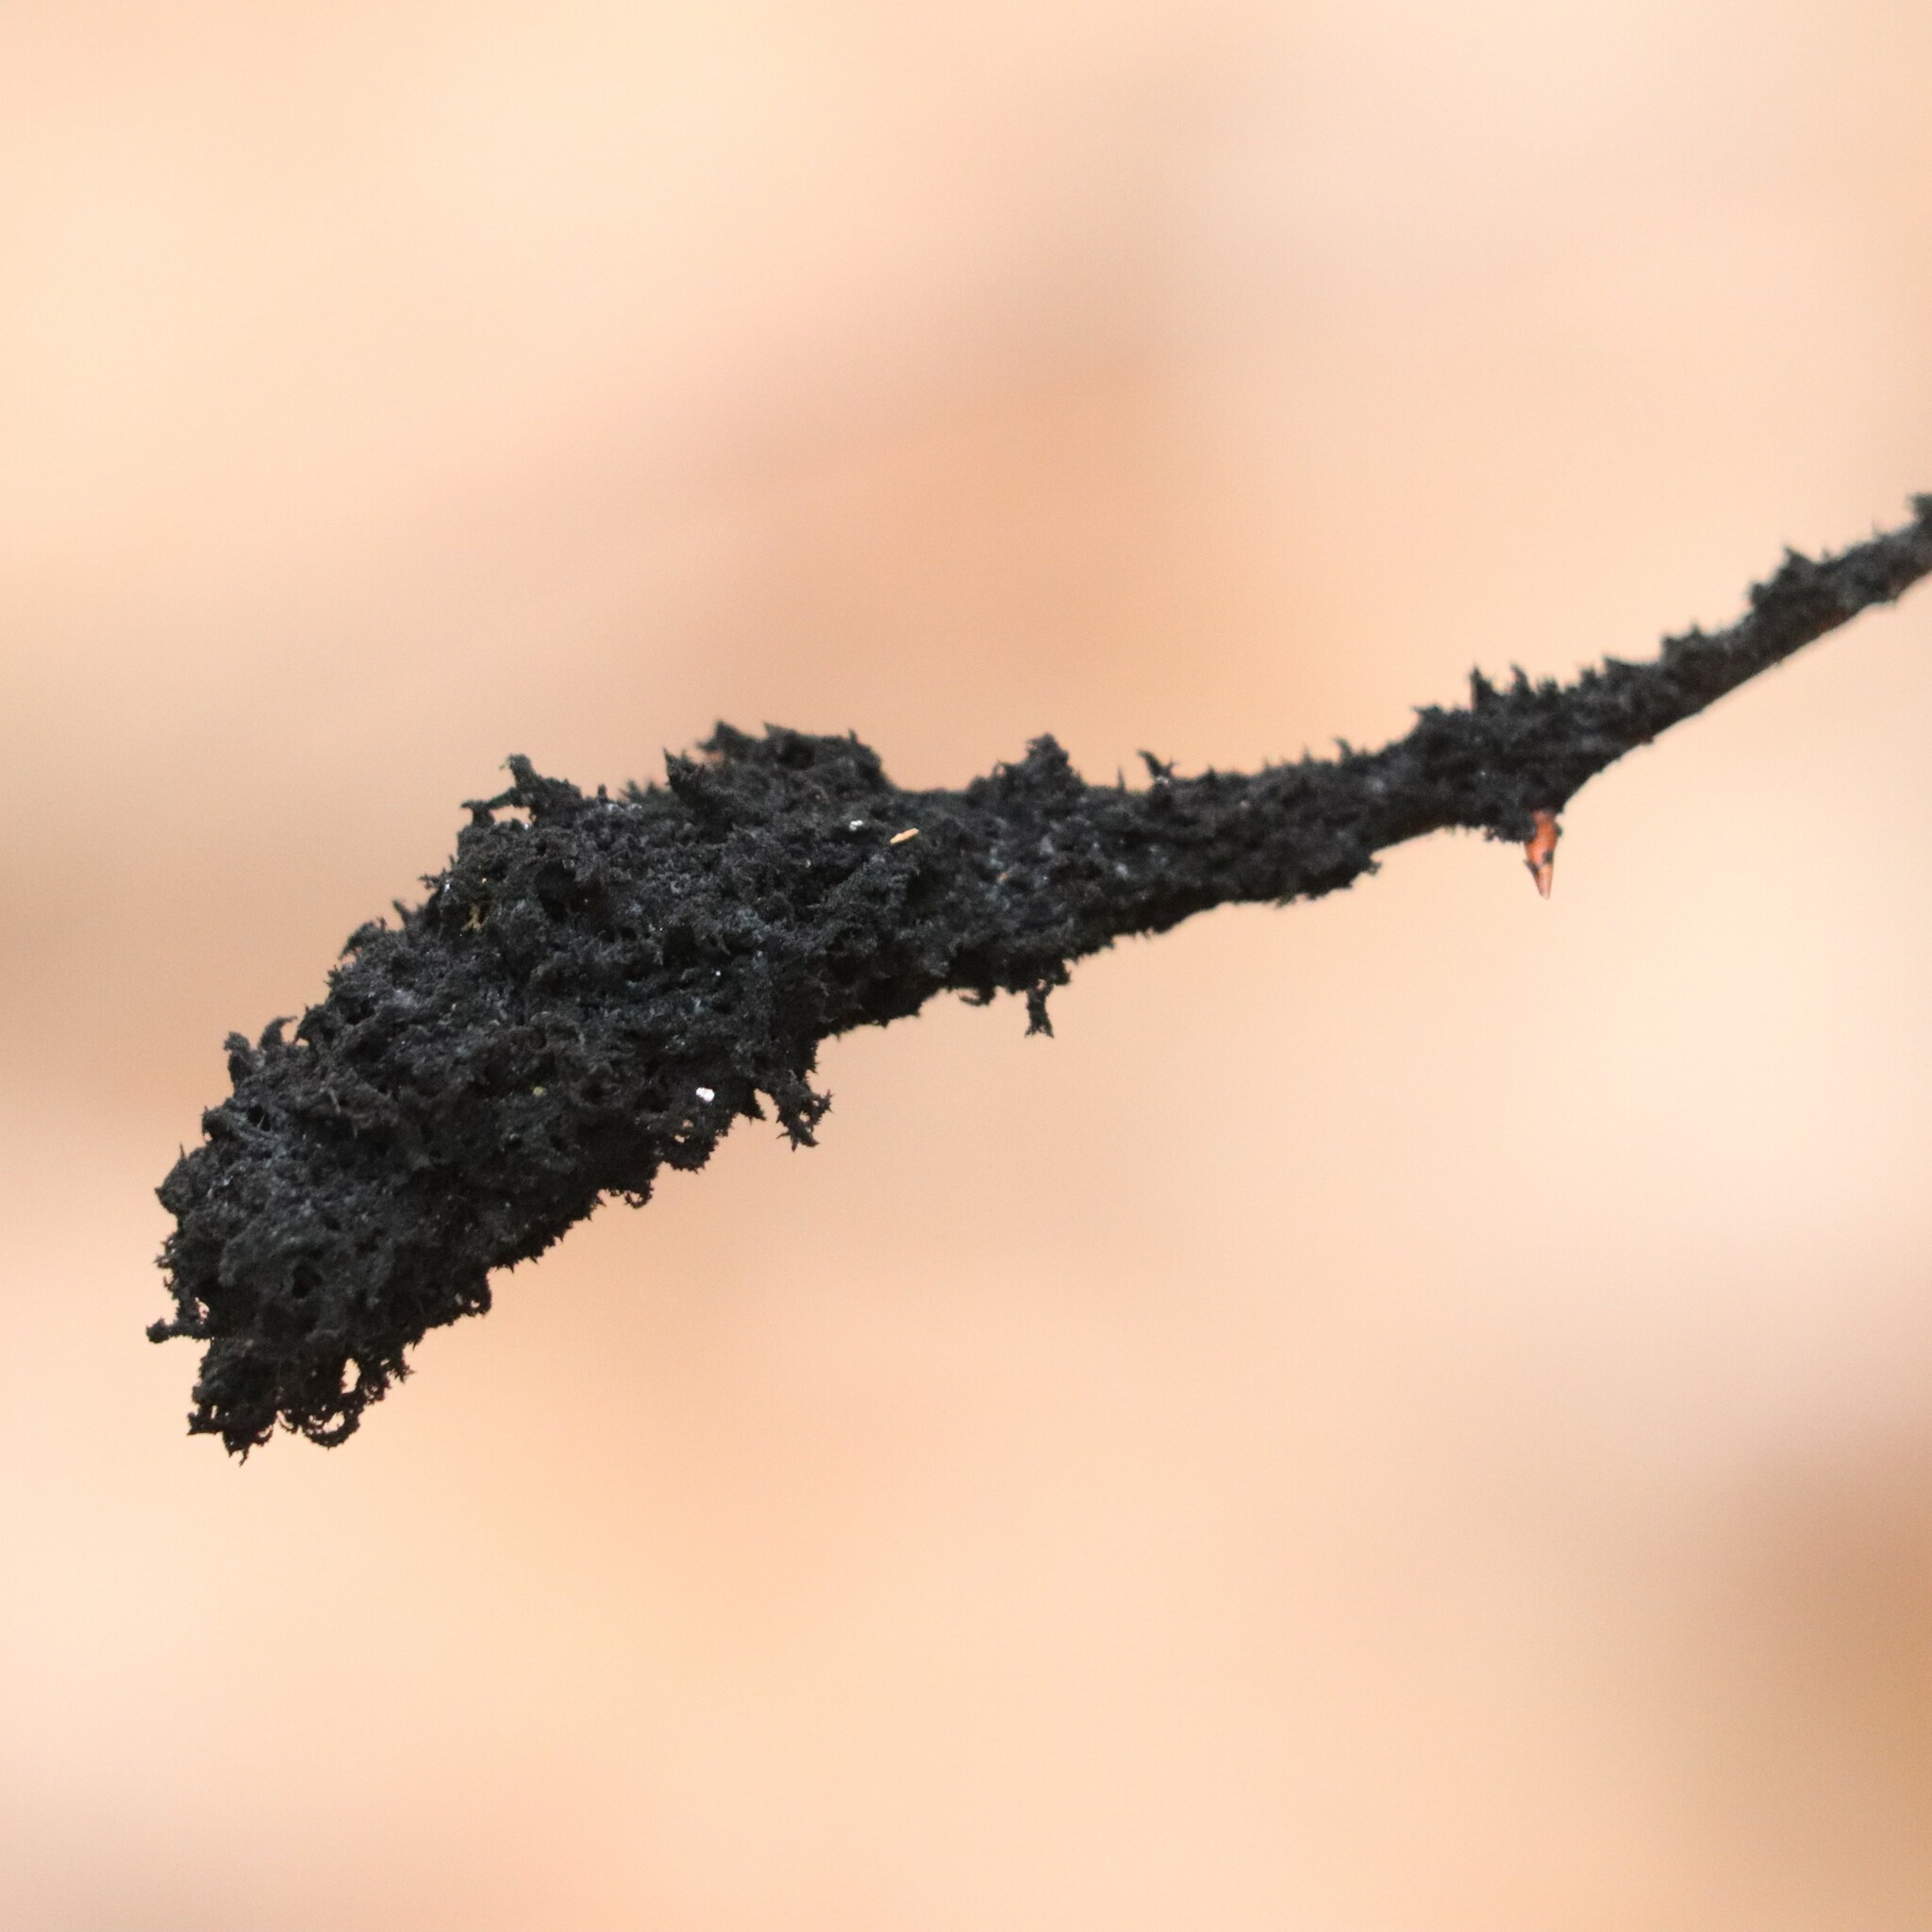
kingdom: Fungi
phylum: Ascomycota
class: Dothideomycetes
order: Capnodiales
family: Capnodiaceae
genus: Scorias
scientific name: Scorias spongiosa
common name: Black sooty mold
